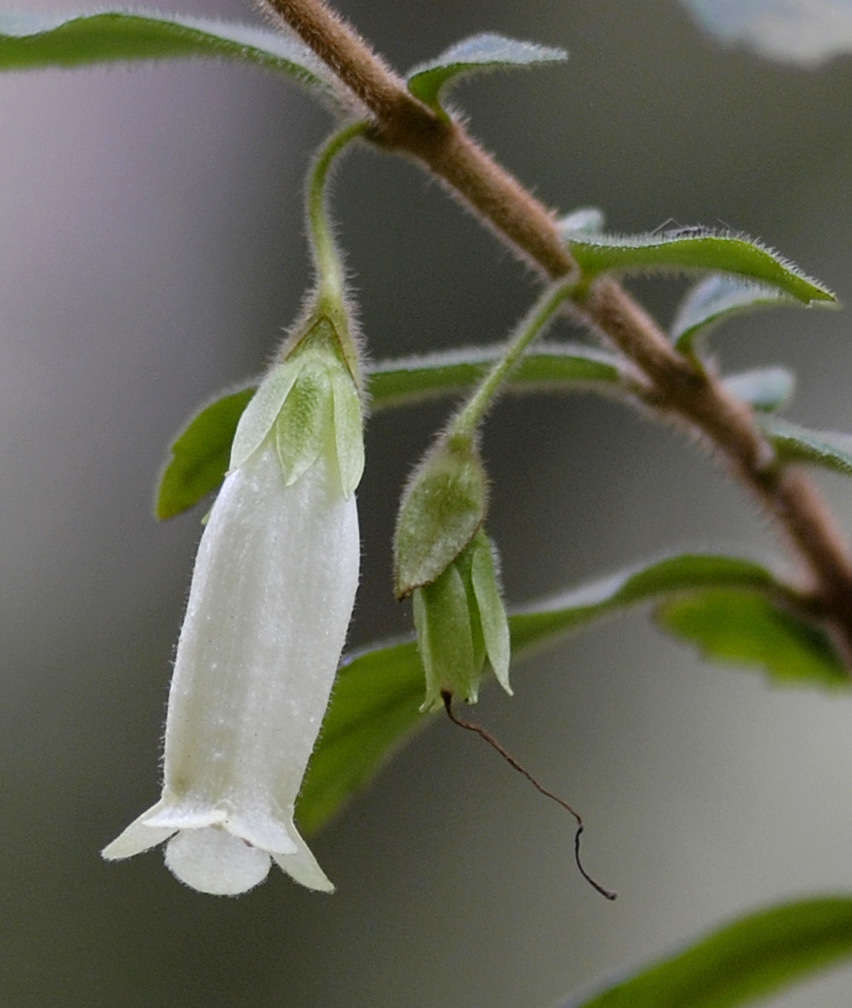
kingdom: Plantae
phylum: Tracheophyta
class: Magnoliopsida
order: Lamiales
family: Gesneriaceae
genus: Fieldia
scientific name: Fieldia australis
